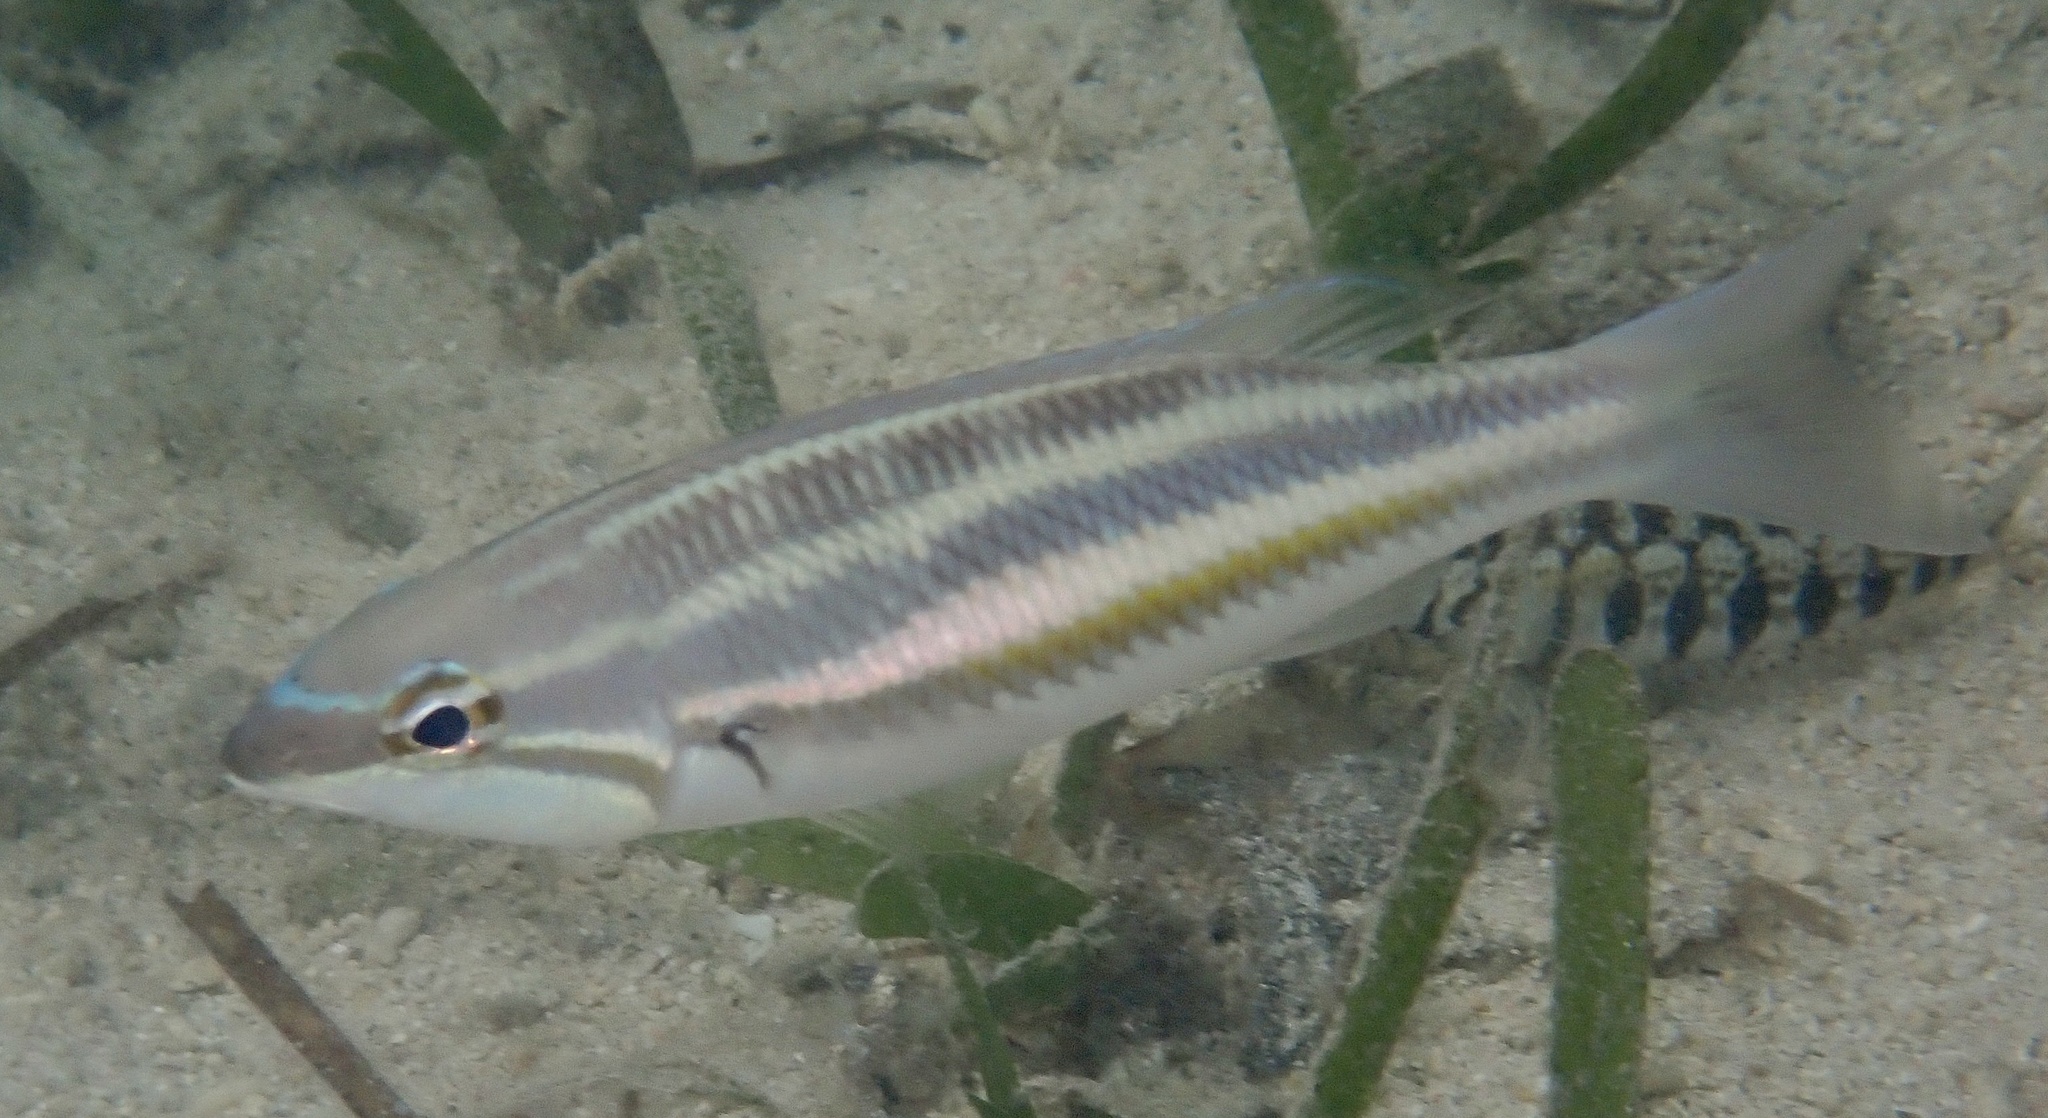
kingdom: Animalia
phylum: Chordata
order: Perciformes
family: Nemipteridae
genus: Pentapodus
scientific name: Pentapodus trivittatus
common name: Three-striped whiptail
